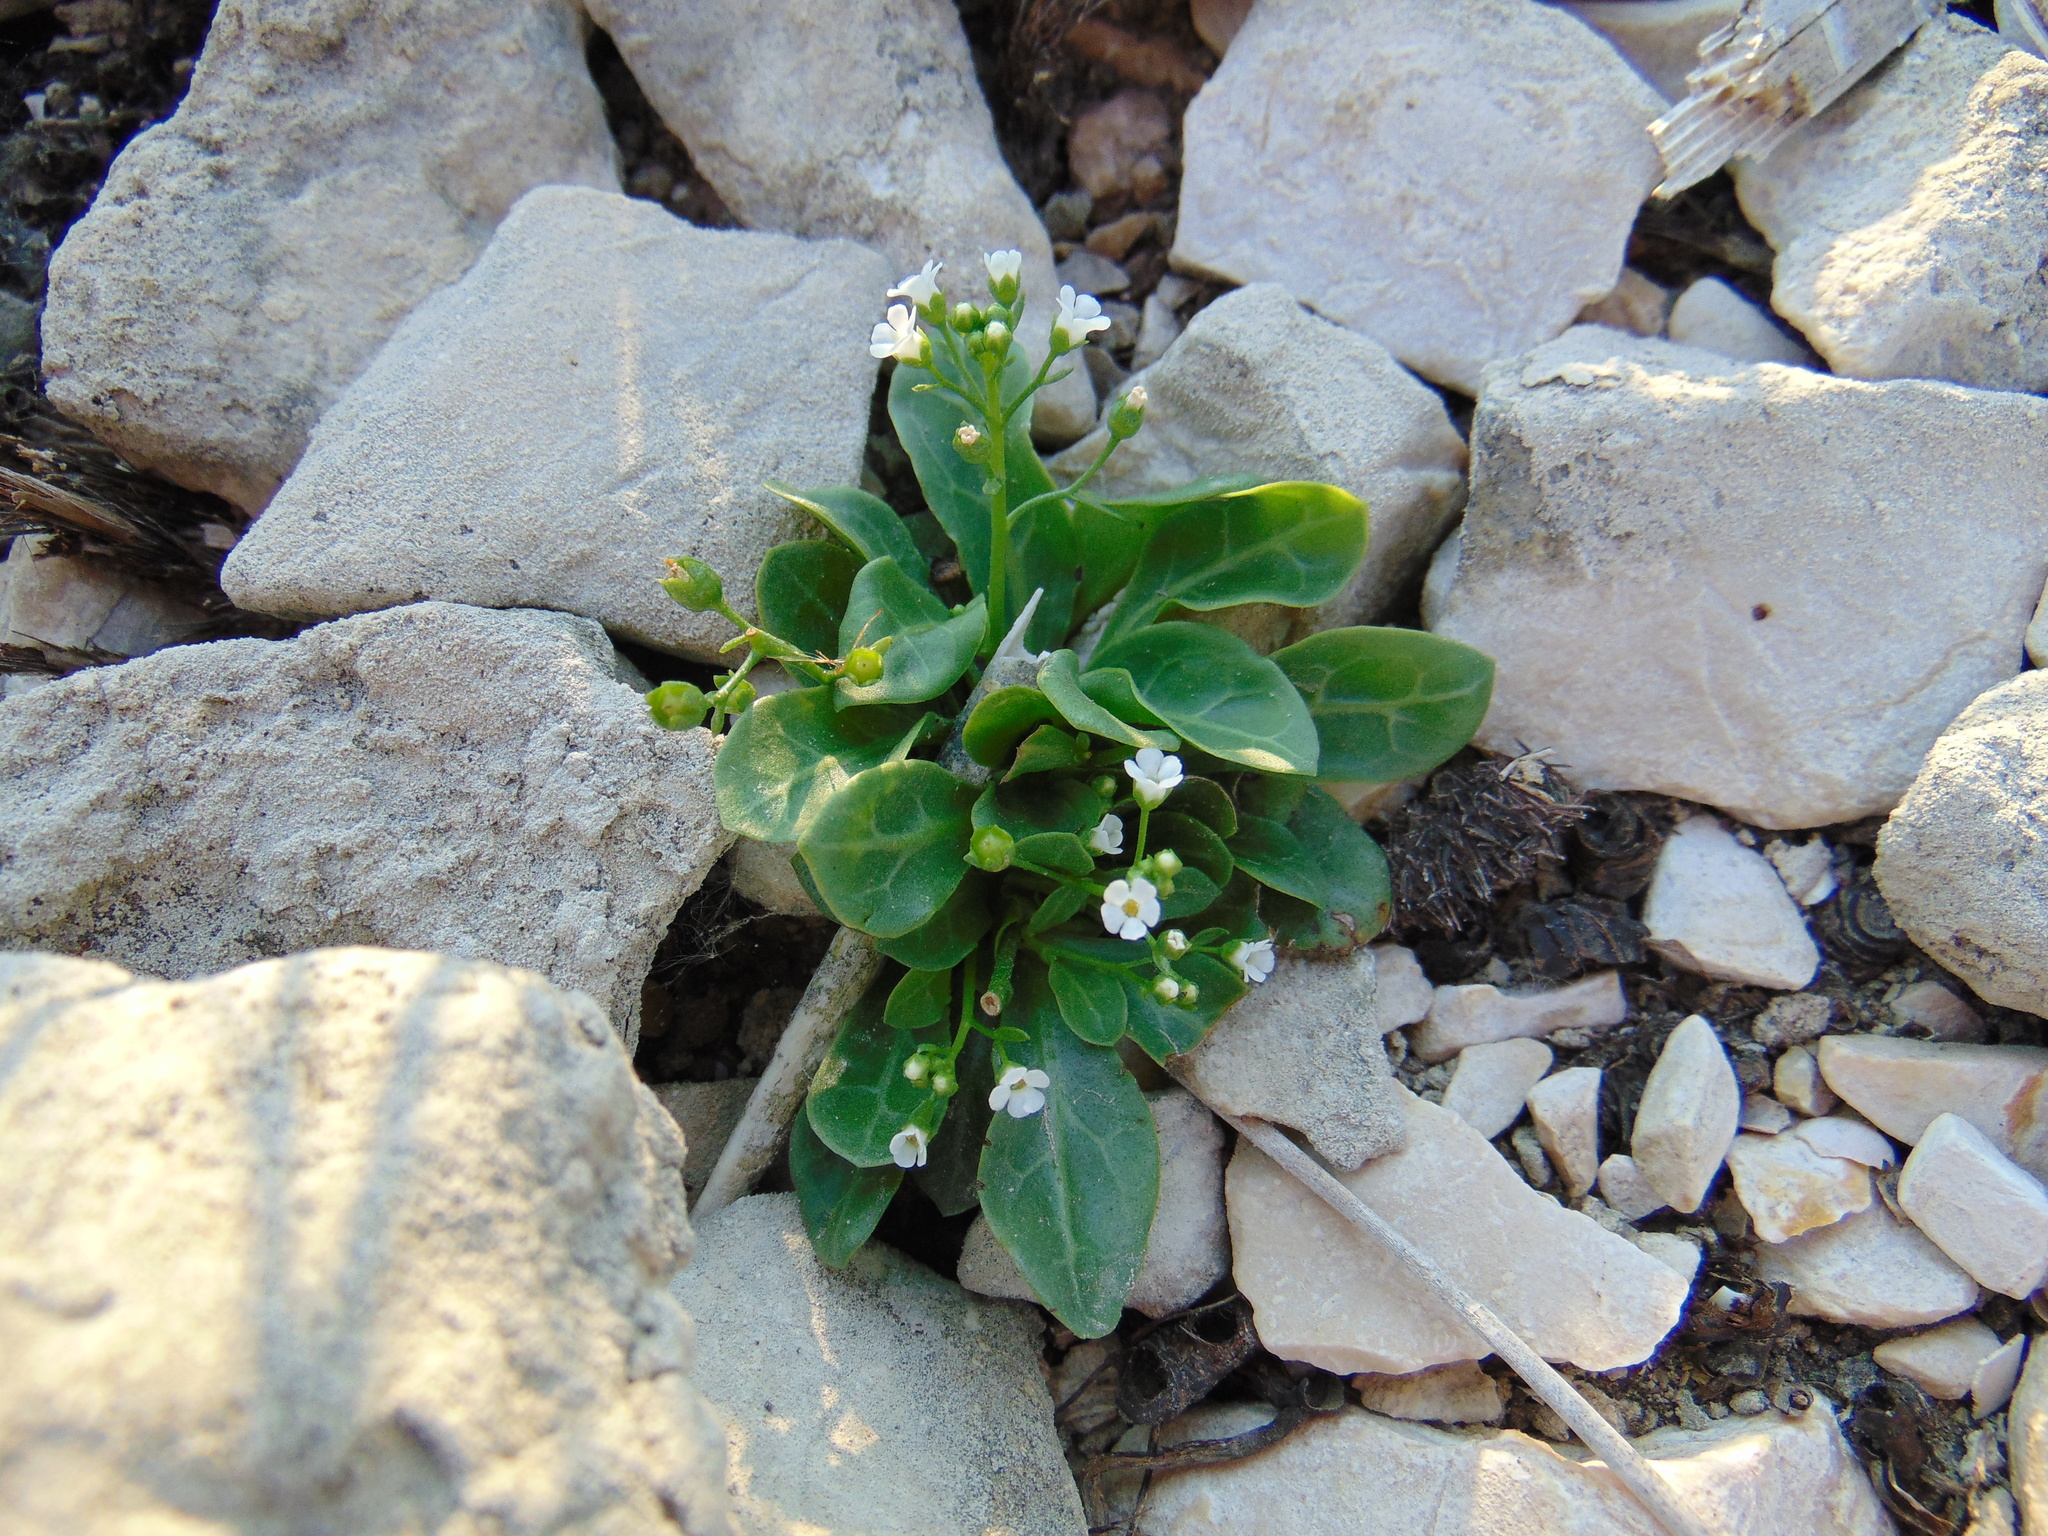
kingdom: Plantae
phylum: Tracheophyta
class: Magnoliopsida
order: Ericales
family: Primulaceae
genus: Samolus
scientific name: Samolus valerandi
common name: Brookweed
